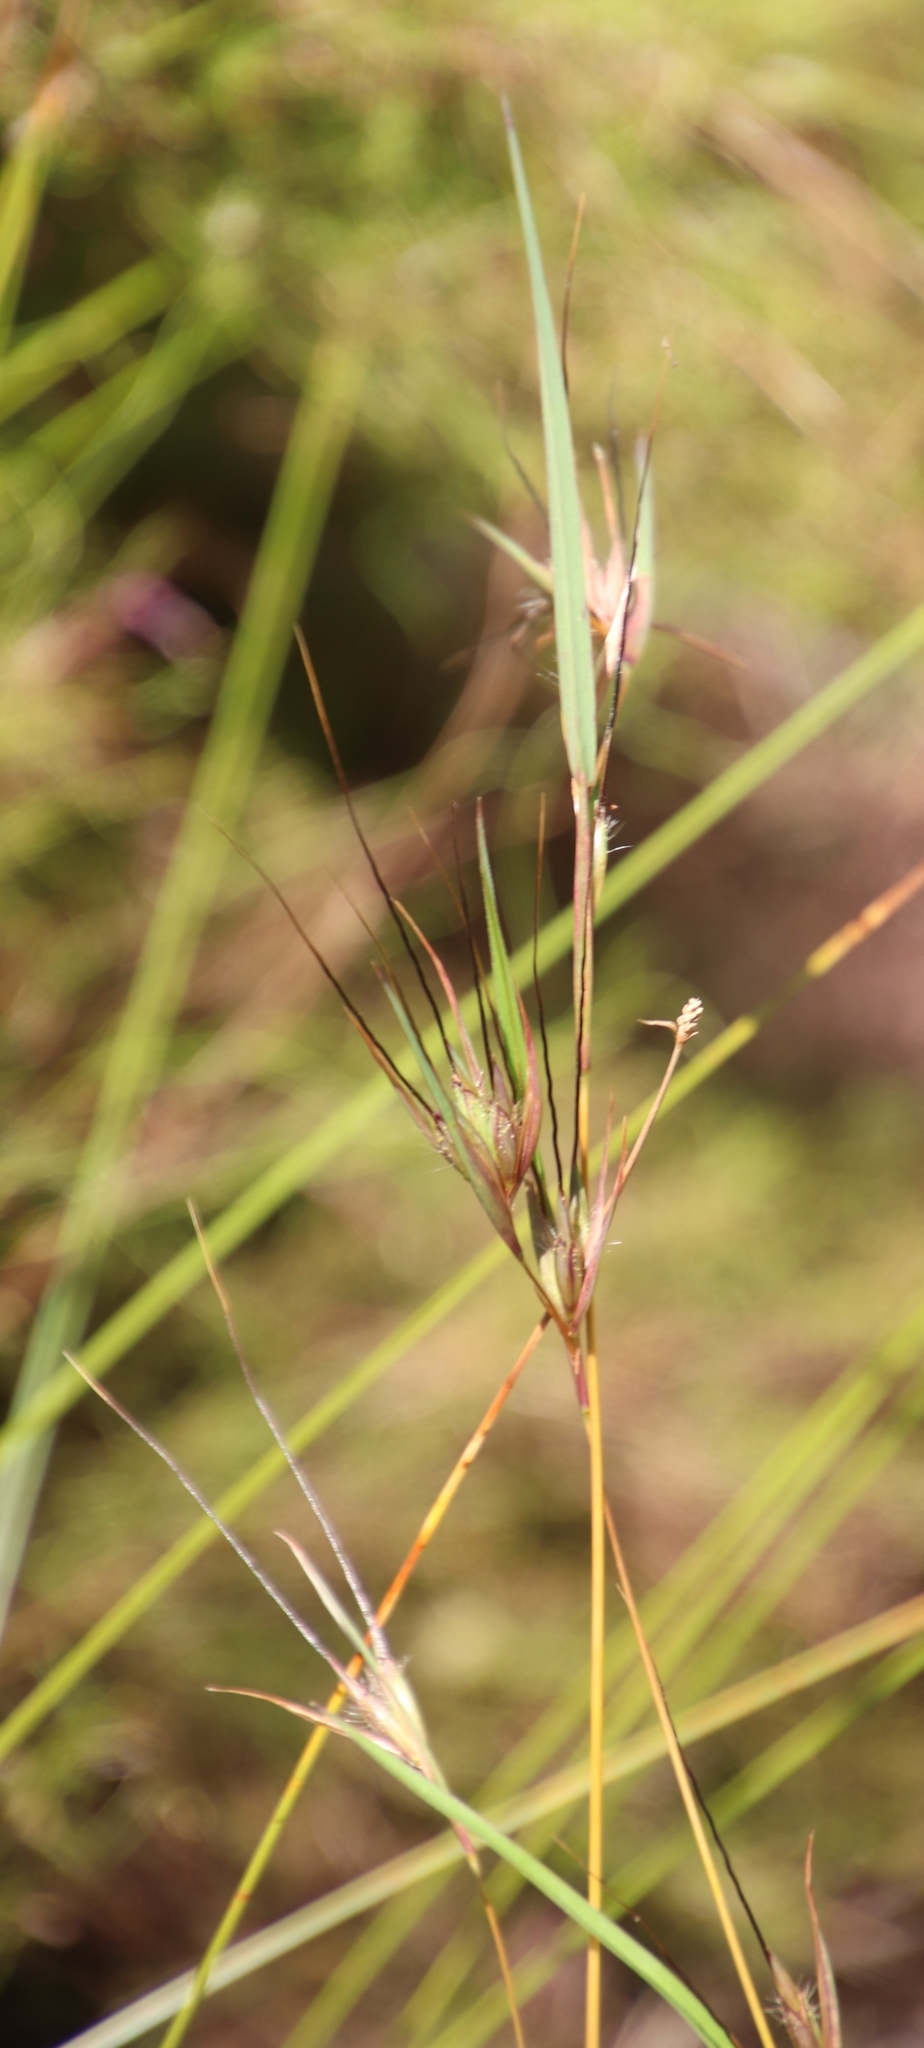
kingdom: Plantae
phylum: Tracheophyta
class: Liliopsida
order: Poales
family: Poaceae
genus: Themeda
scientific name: Themeda triandra
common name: Kangaroo grass
